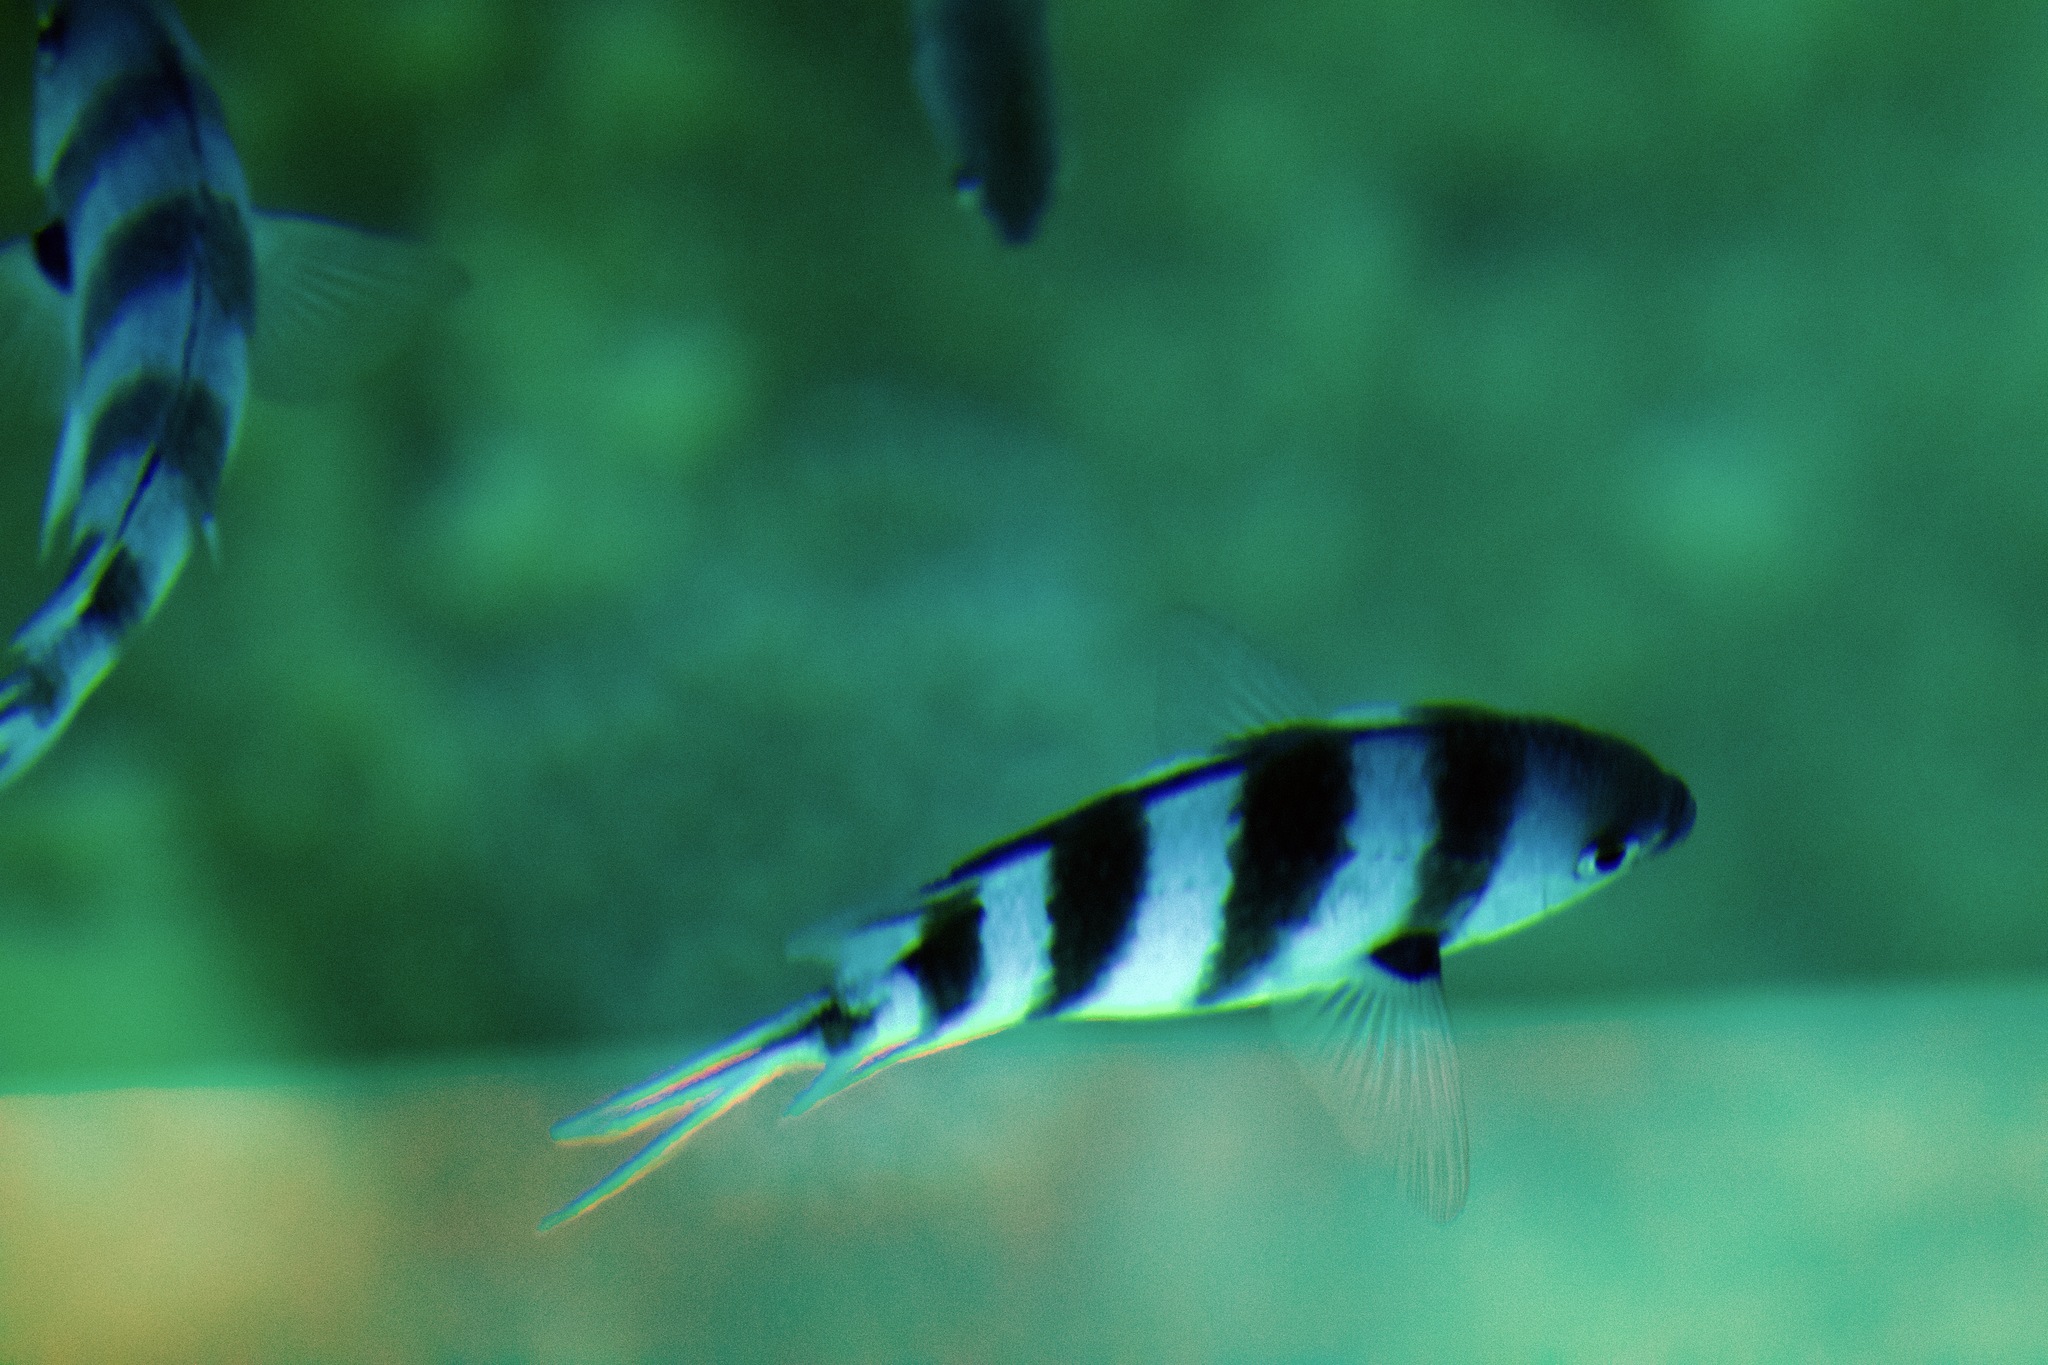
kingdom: Animalia
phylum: Chordata
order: Perciformes
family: Pomacentridae
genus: Abudefduf
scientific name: Abudefduf sexfasciatus
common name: Scissortail sergeant
